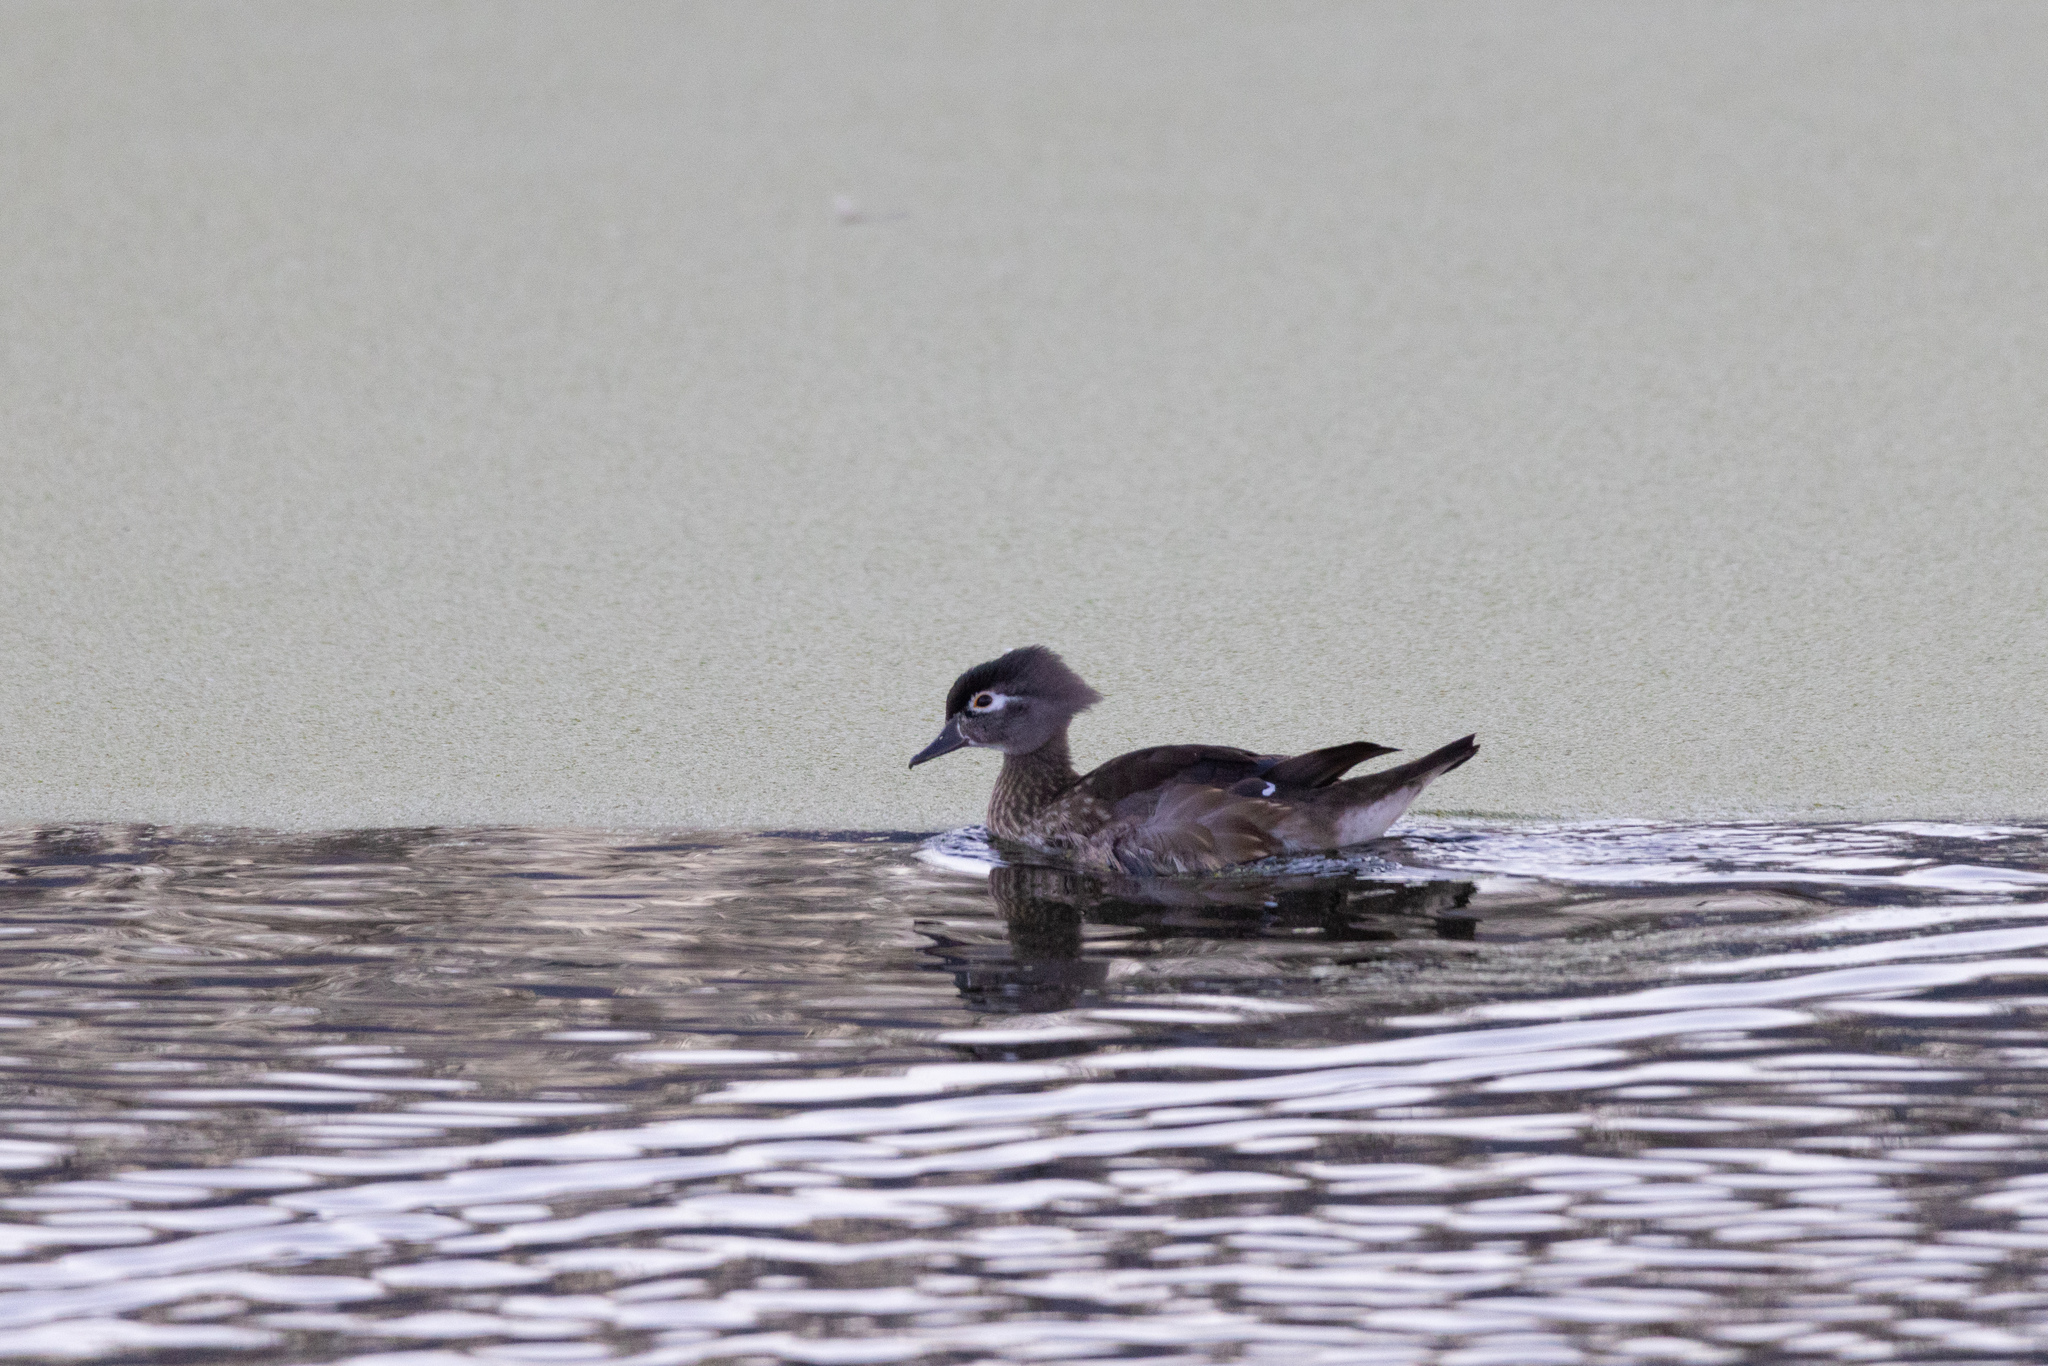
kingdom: Animalia
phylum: Chordata
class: Aves
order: Anseriformes
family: Anatidae
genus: Aix
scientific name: Aix sponsa
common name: Wood duck
